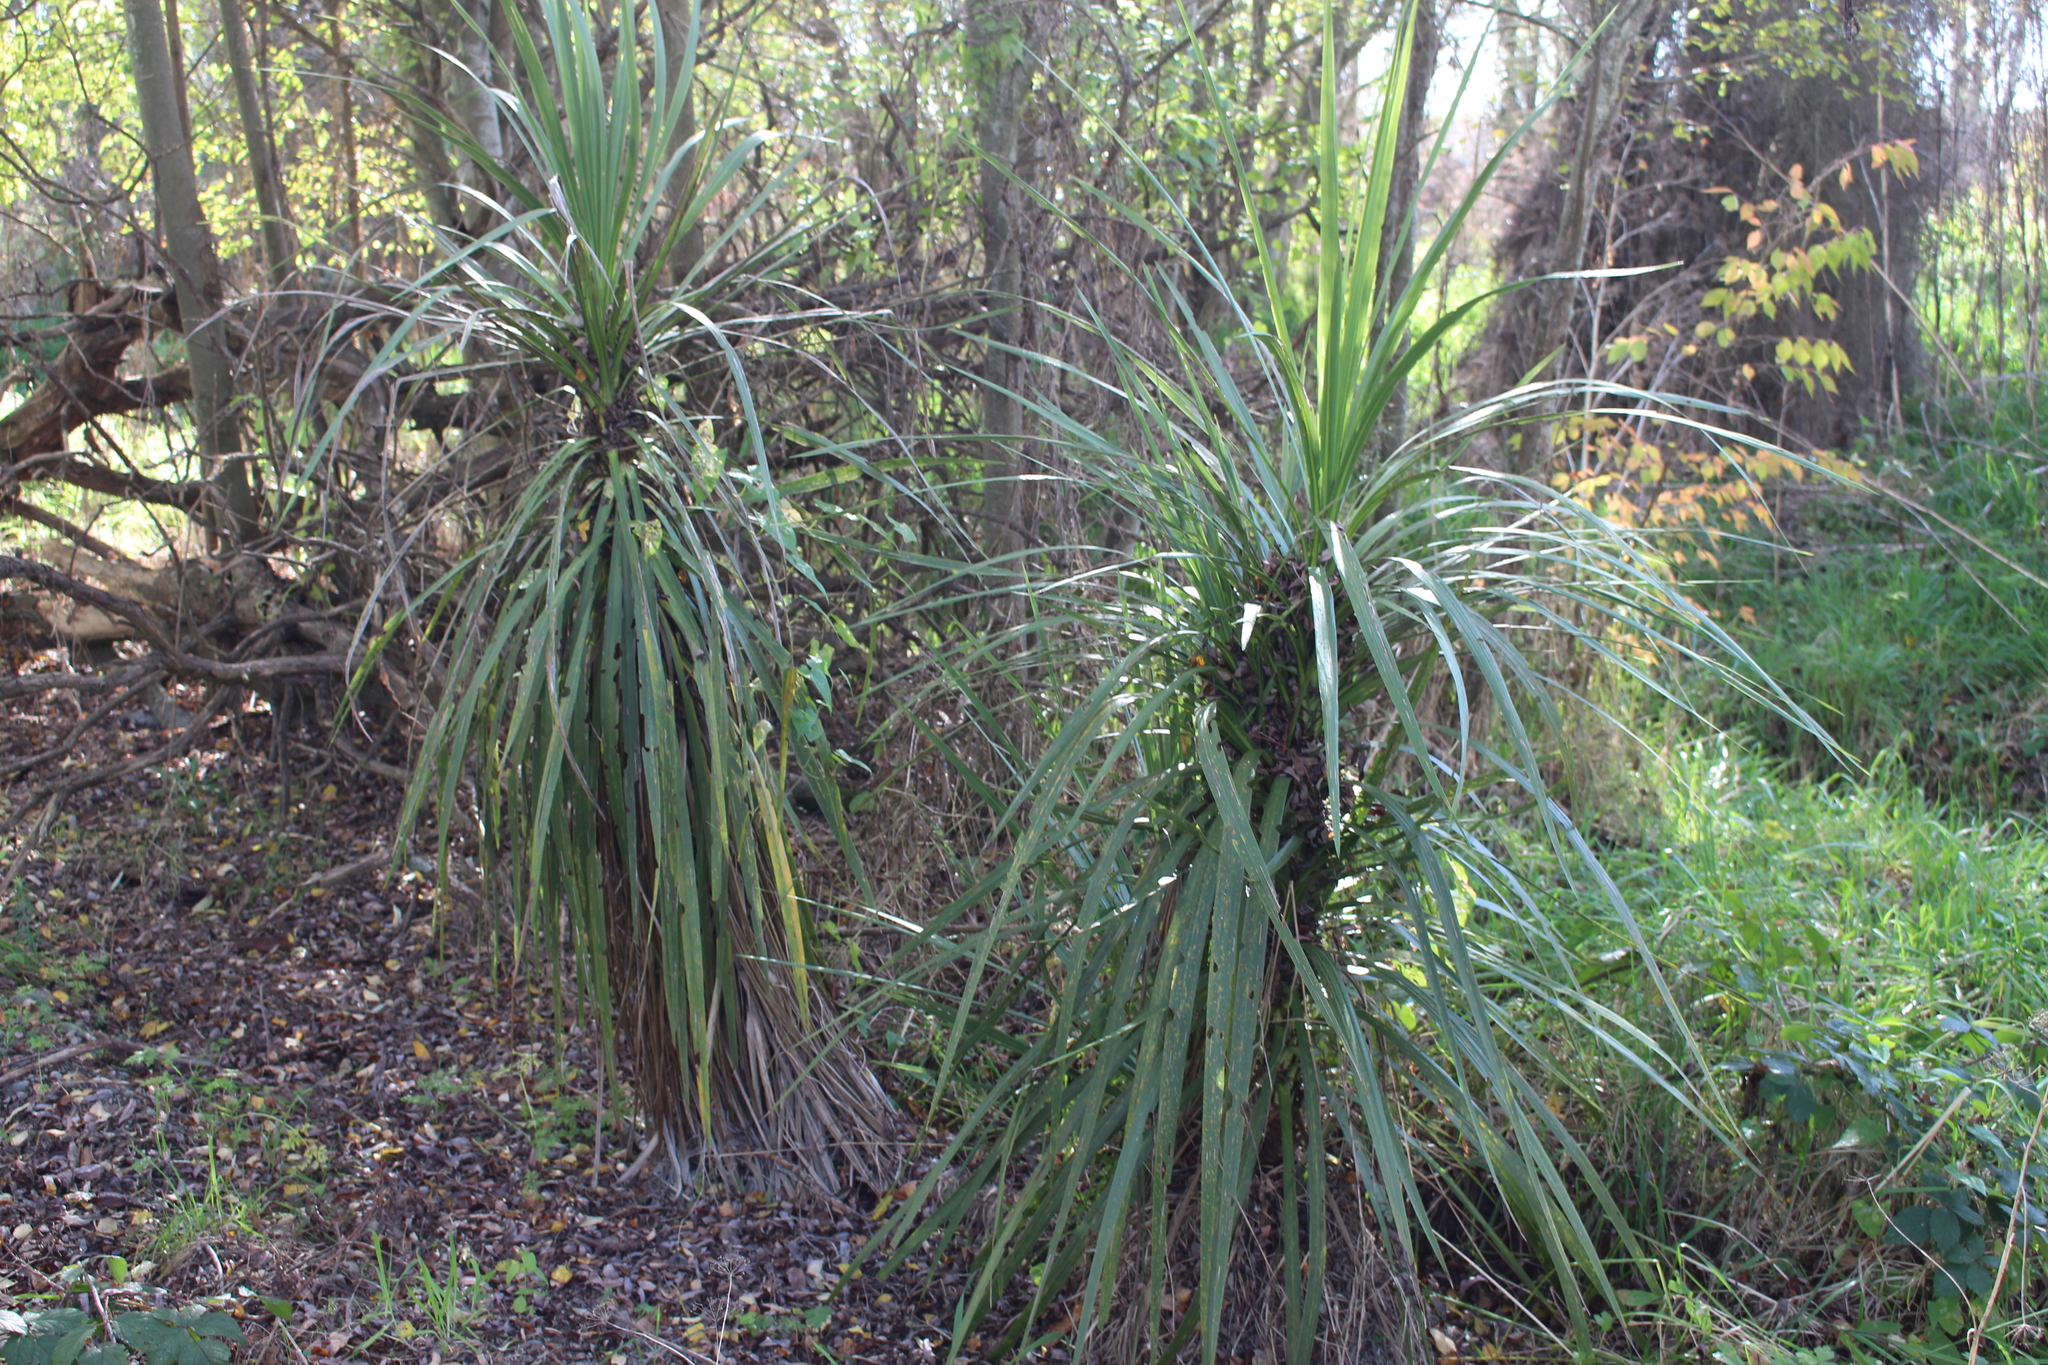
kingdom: Plantae
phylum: Tracheophyta
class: Liliopsida
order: Asparagales
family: Asparagaceae
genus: Cordyline
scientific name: Cordyline australis
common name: Cabbage-palm
